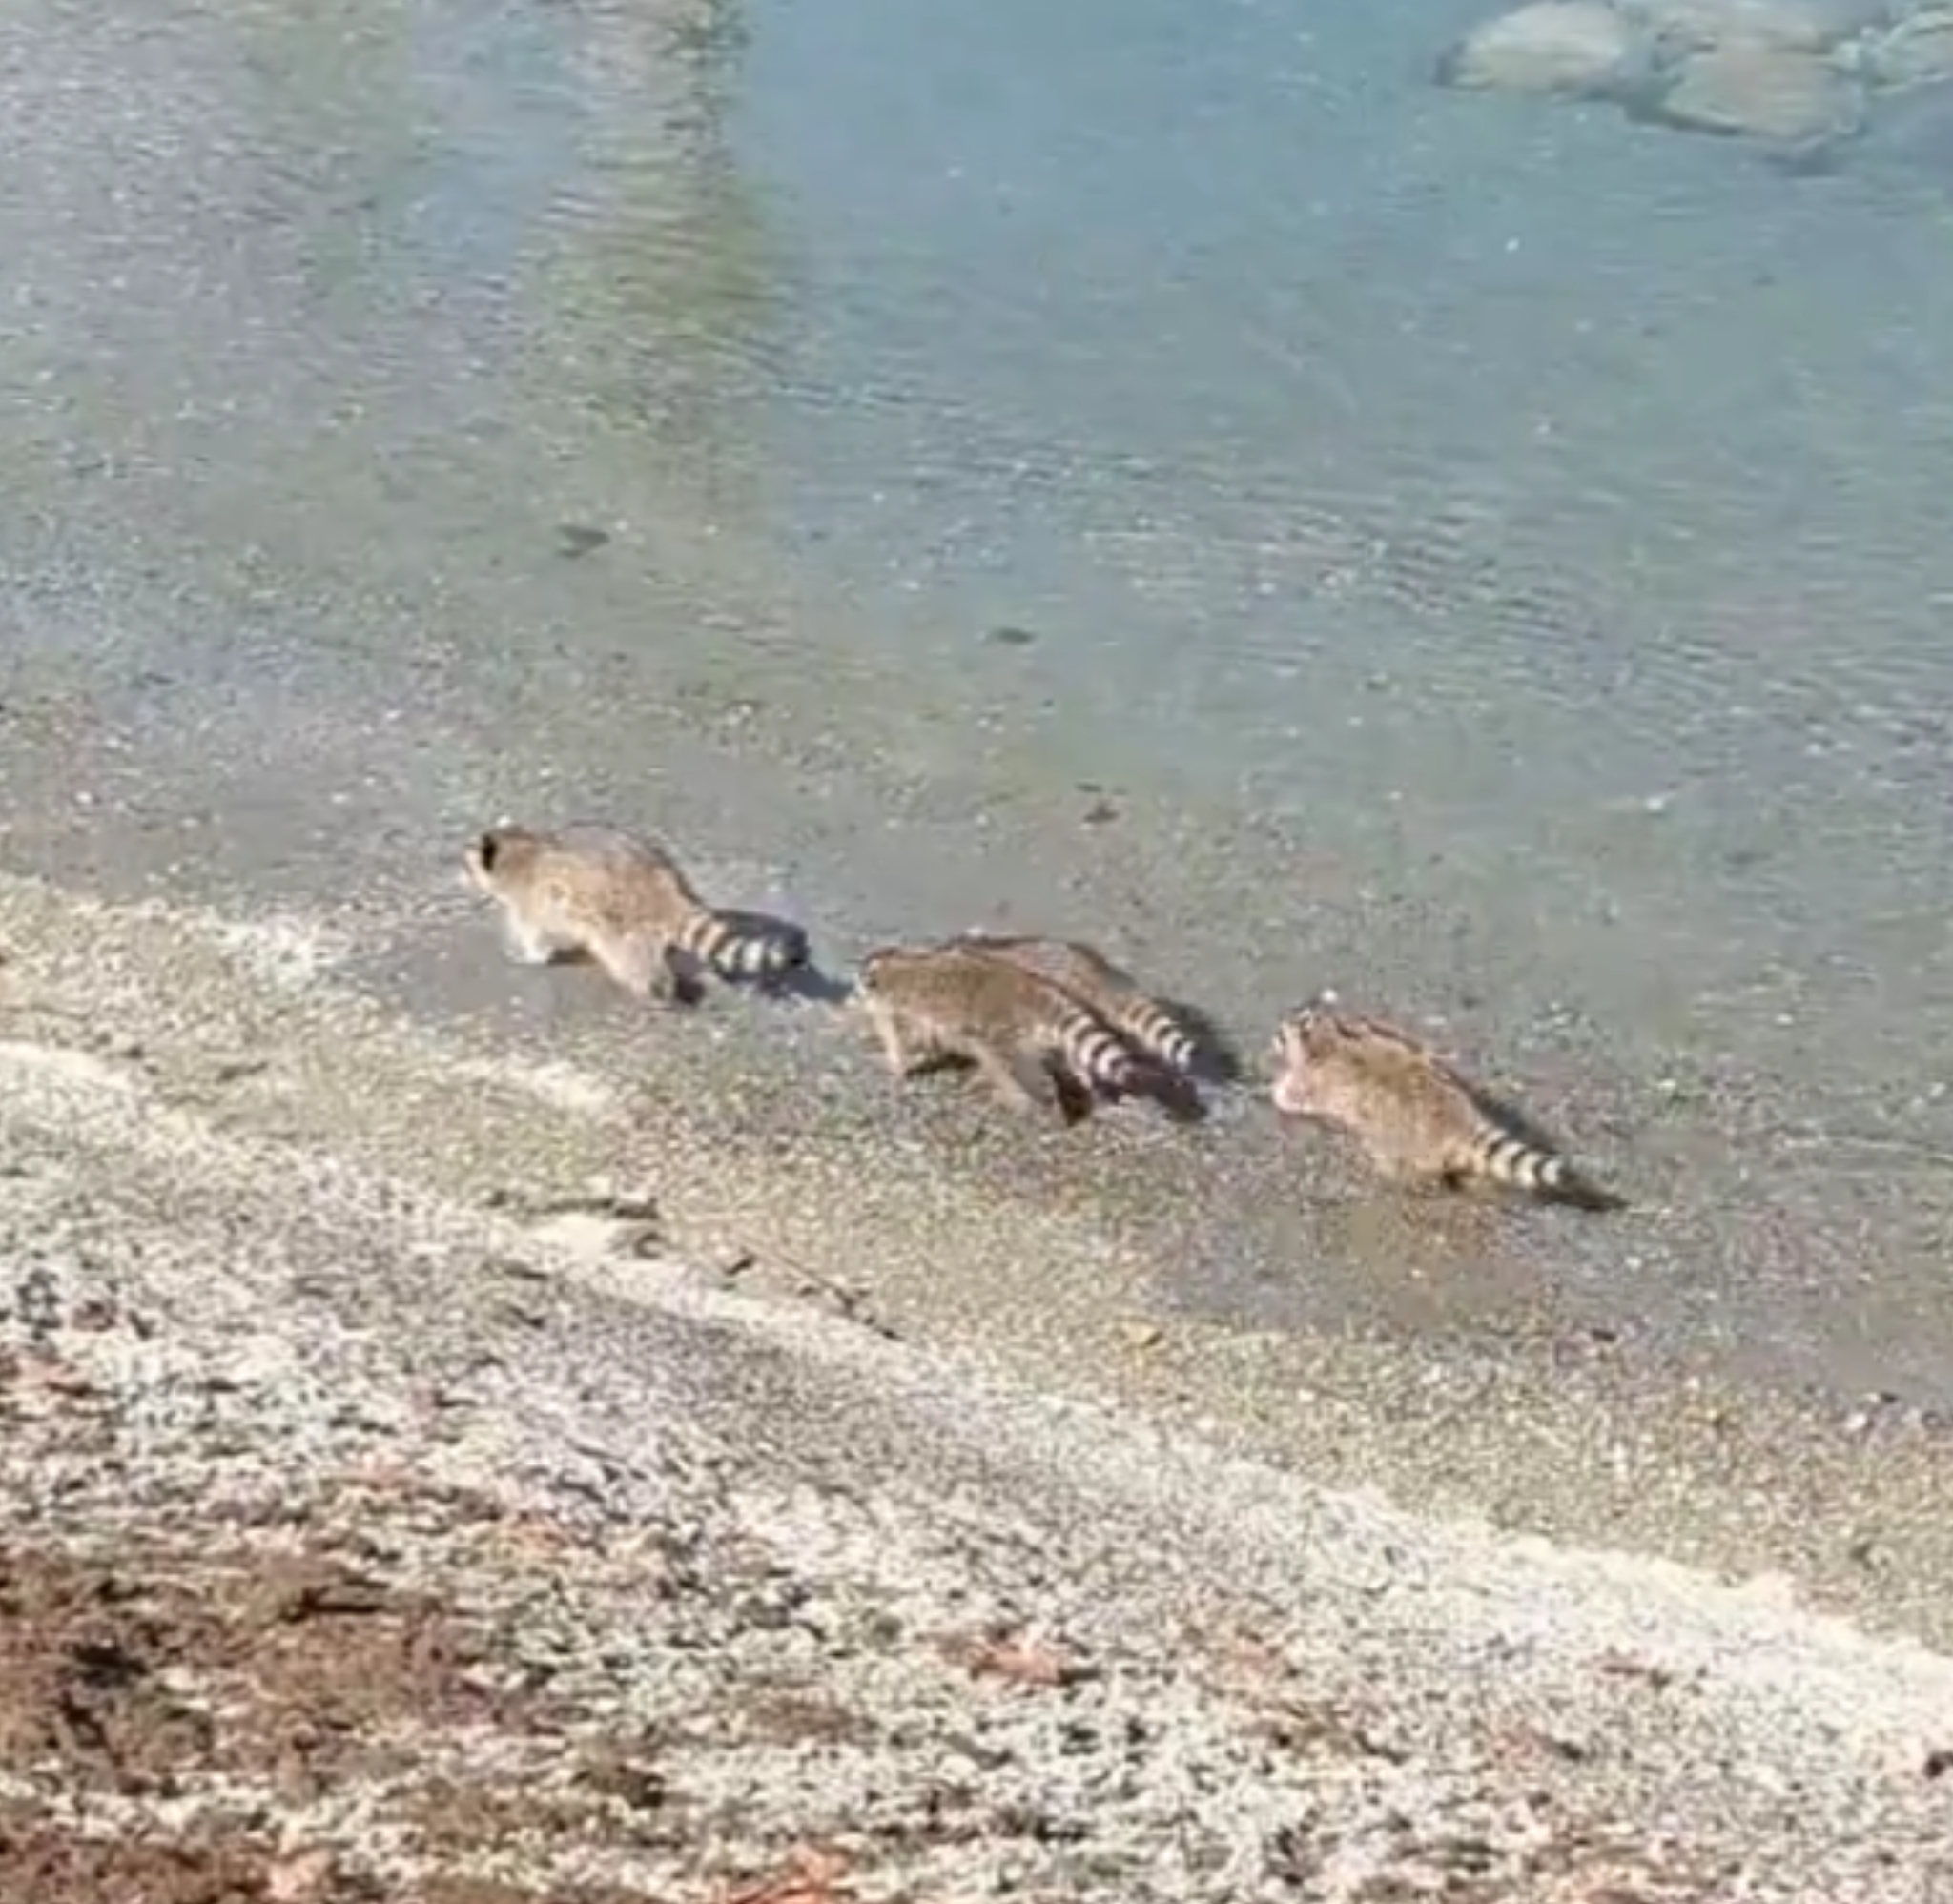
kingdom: Animalia
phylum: Chordata
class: Mammalia
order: Carnivora
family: Procyonidae
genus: Procyon
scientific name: Procyon lotor
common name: Raccoon
